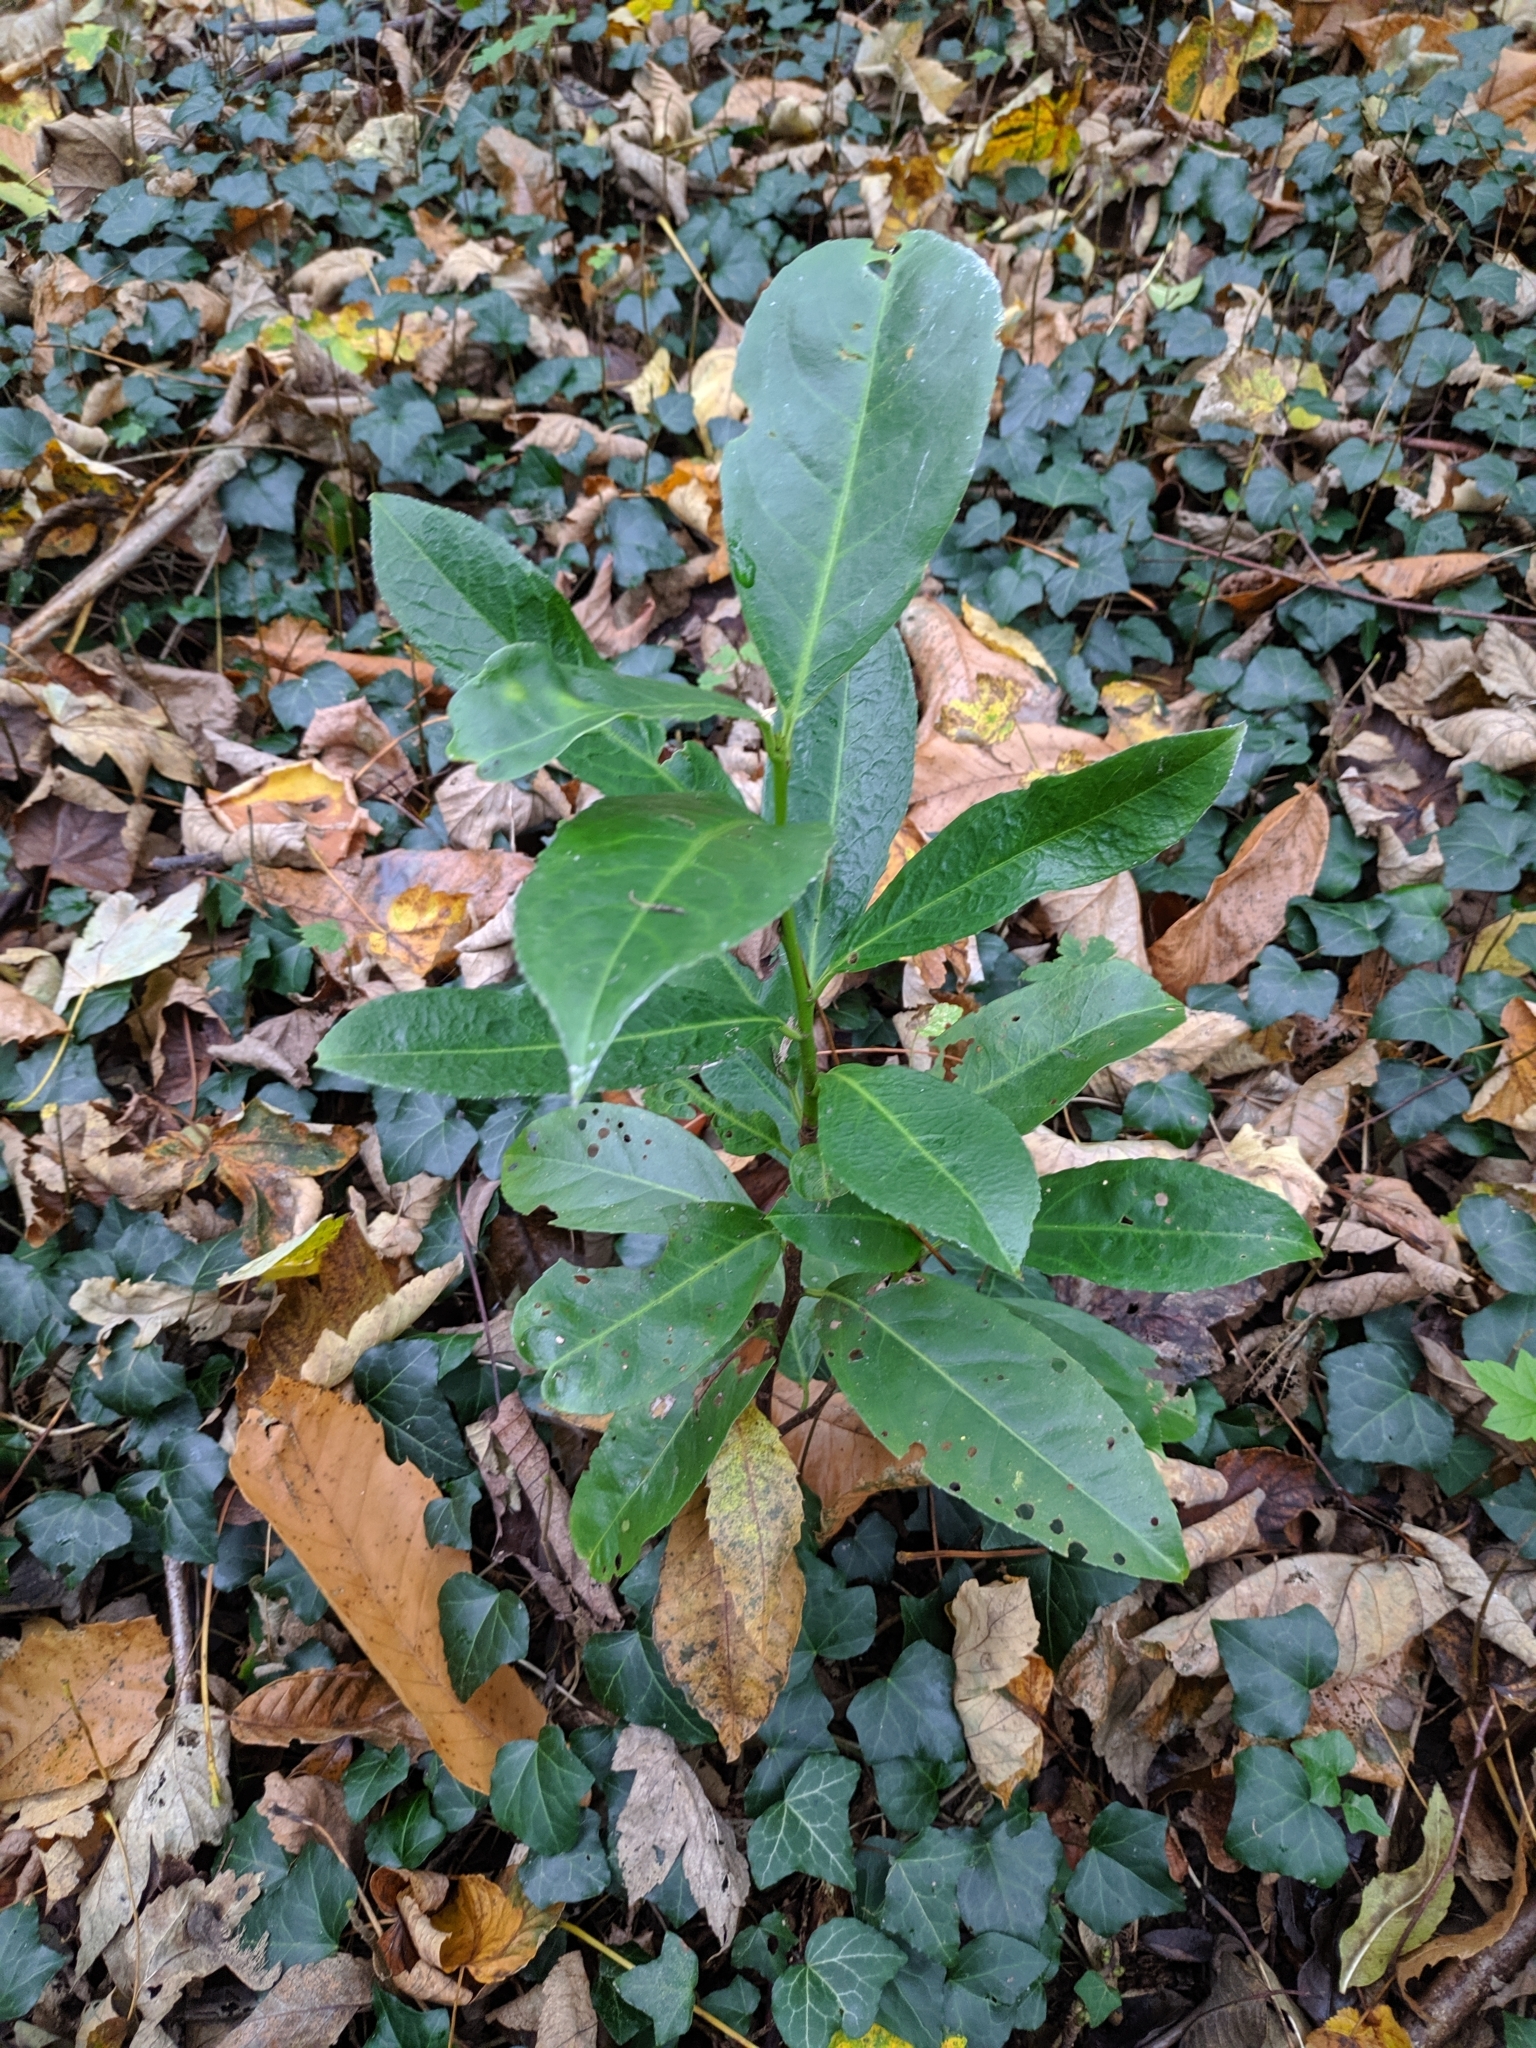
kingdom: Plantae
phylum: Tracheophyta
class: Magnoliopsida
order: Rosales
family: Rosaceae
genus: Prunus
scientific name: Prunus laurocerasus
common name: Cherry laurel
